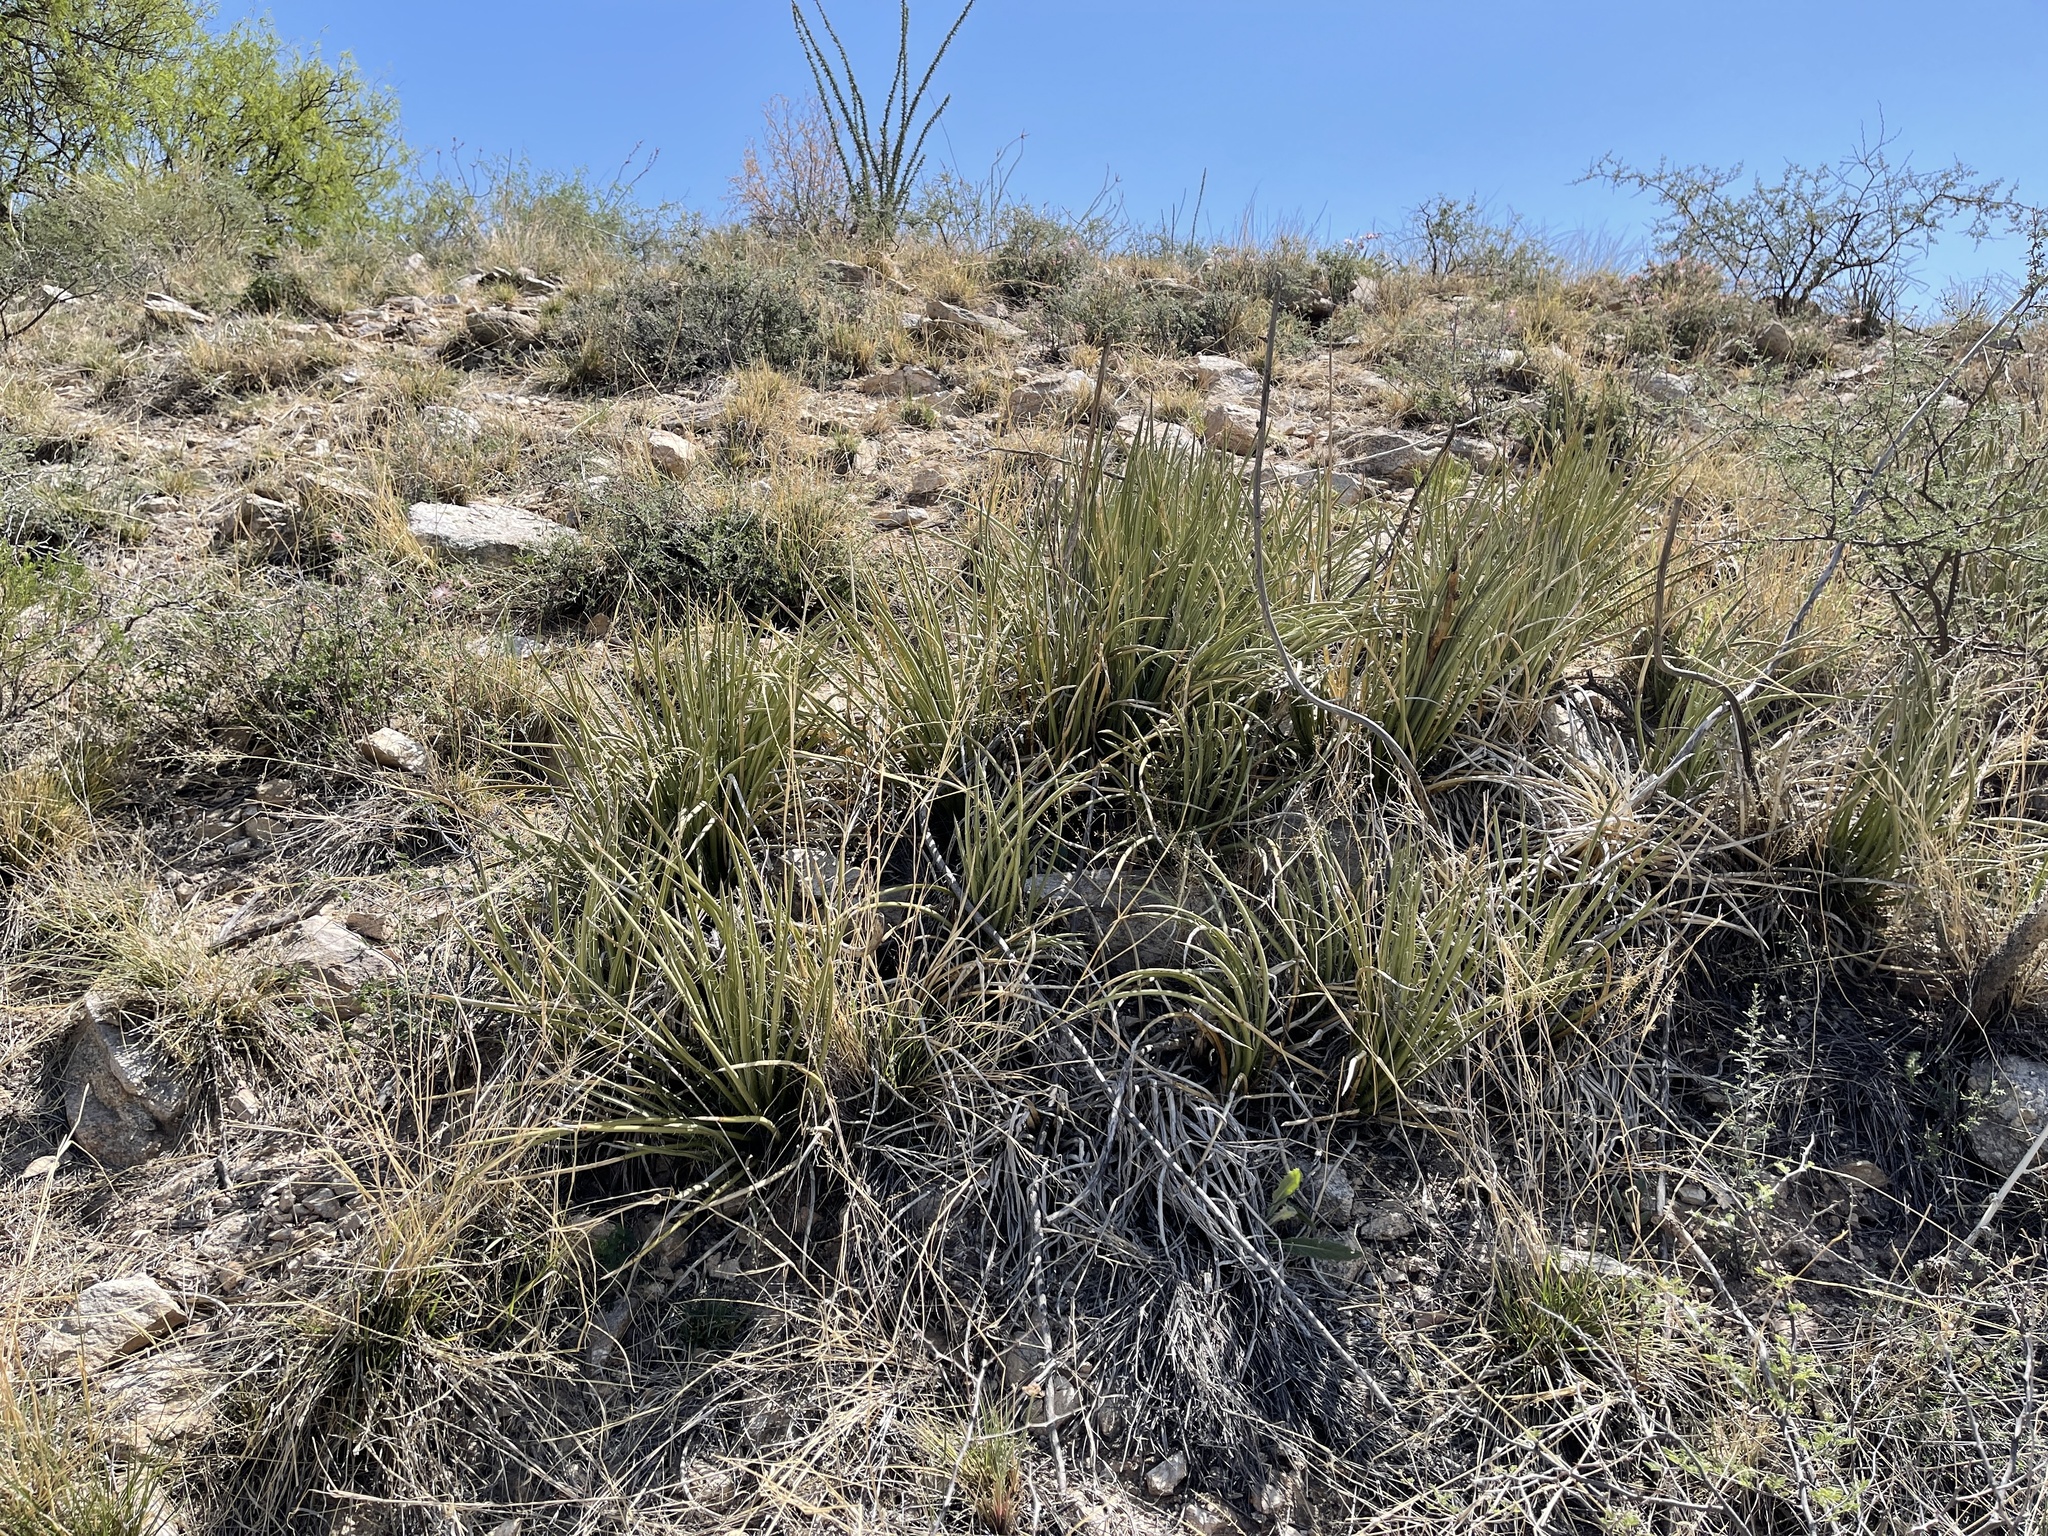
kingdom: Plantae
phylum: Tracheophyta
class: Liliopsida
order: Asparagales
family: Asparagaceae
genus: Agave
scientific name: Agave schottii
